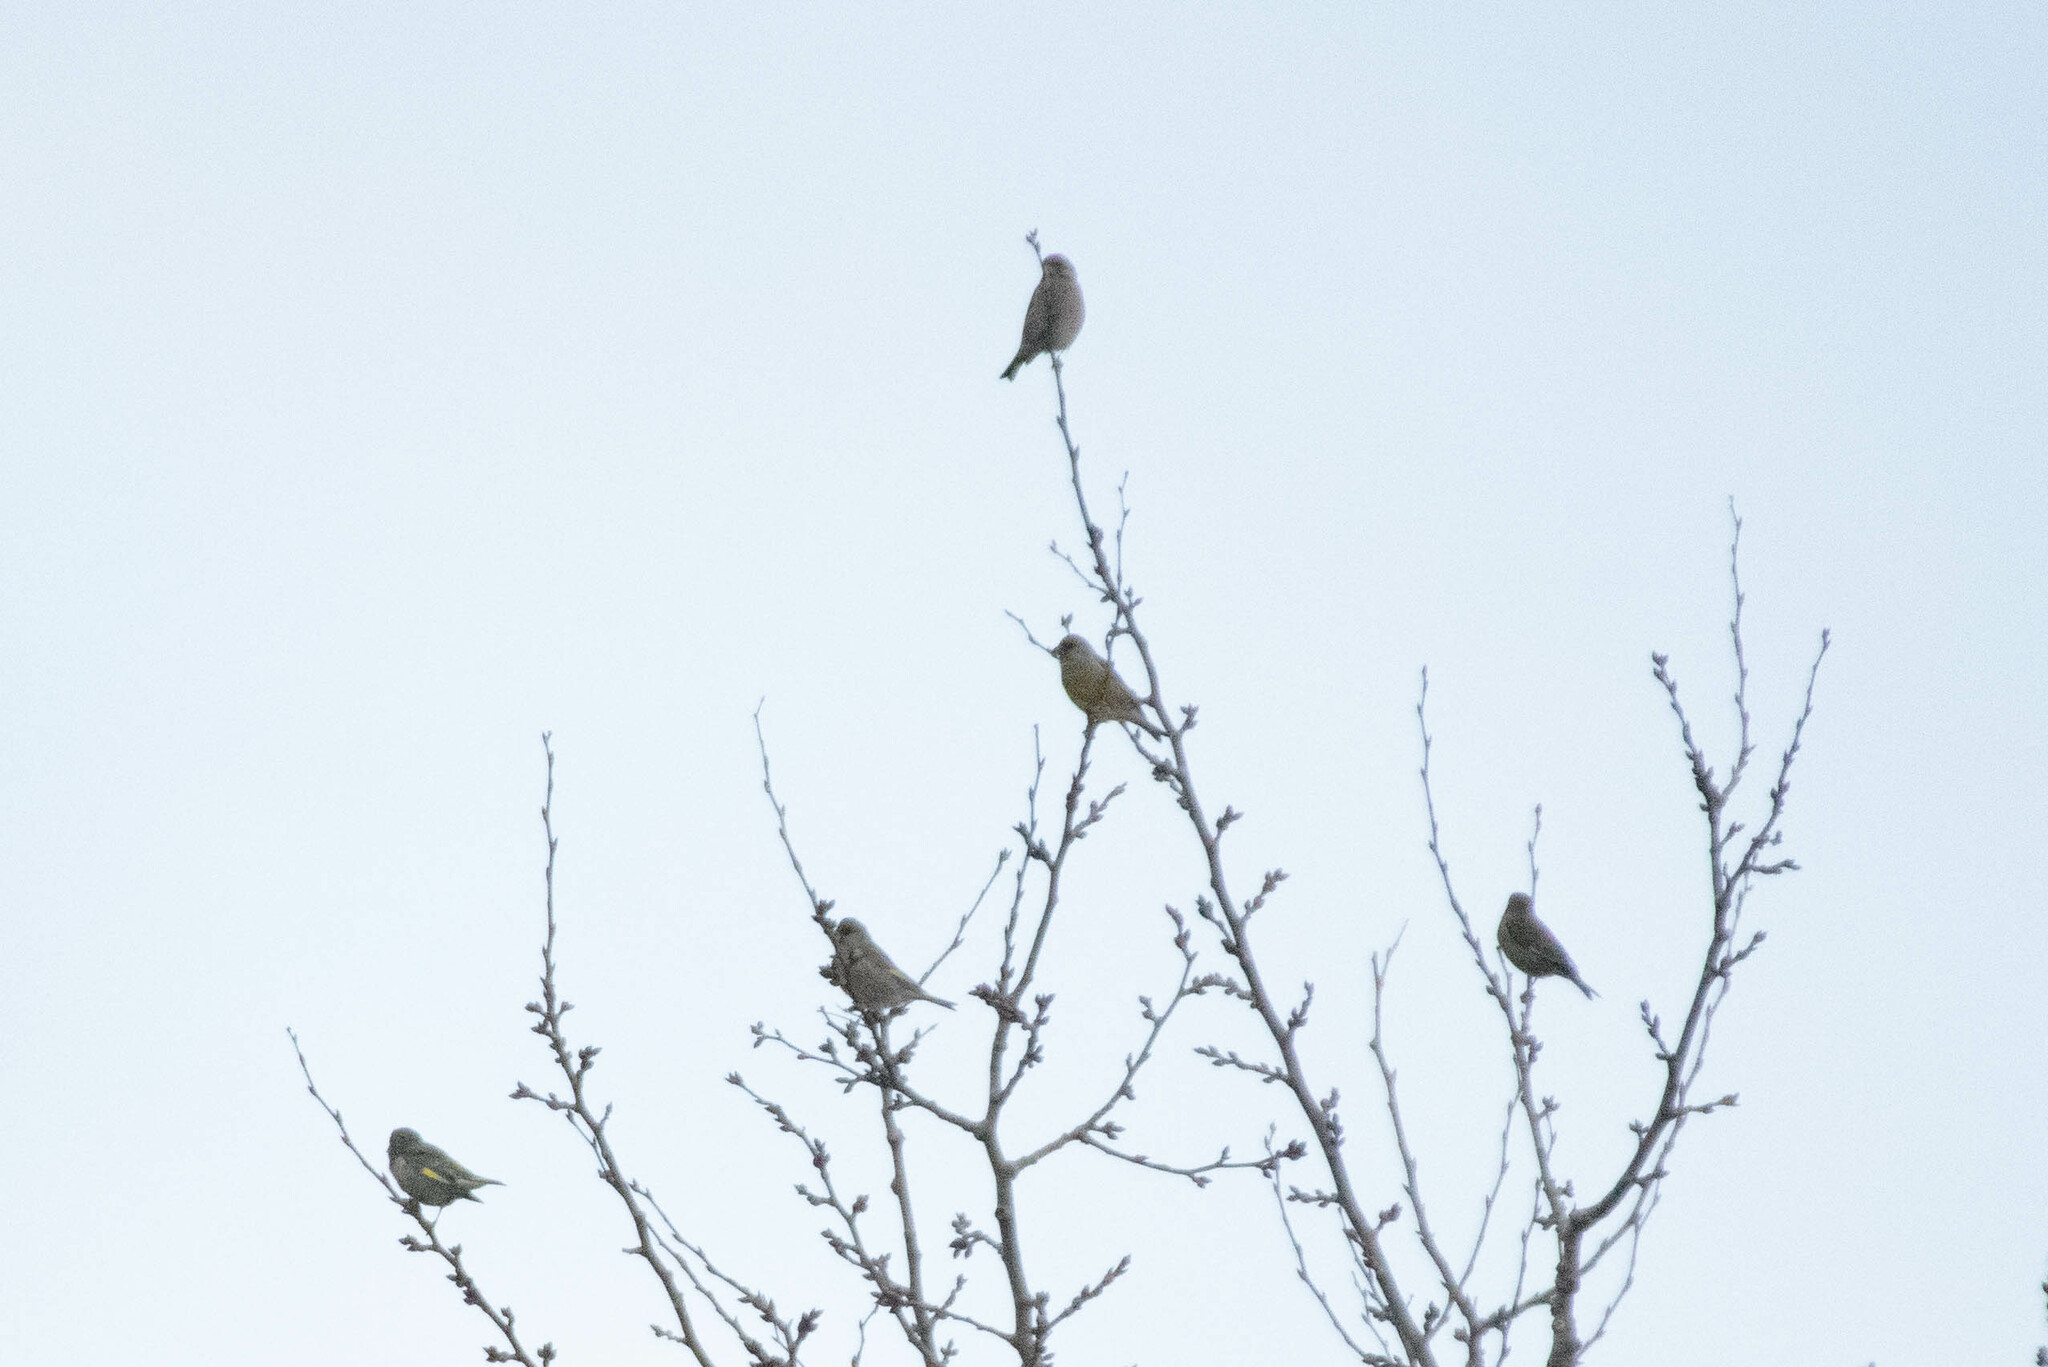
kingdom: Plantae
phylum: Tracheophyta
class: Liliopsida
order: Poales
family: Poaceae
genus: Chloris
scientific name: Chloris chloris
